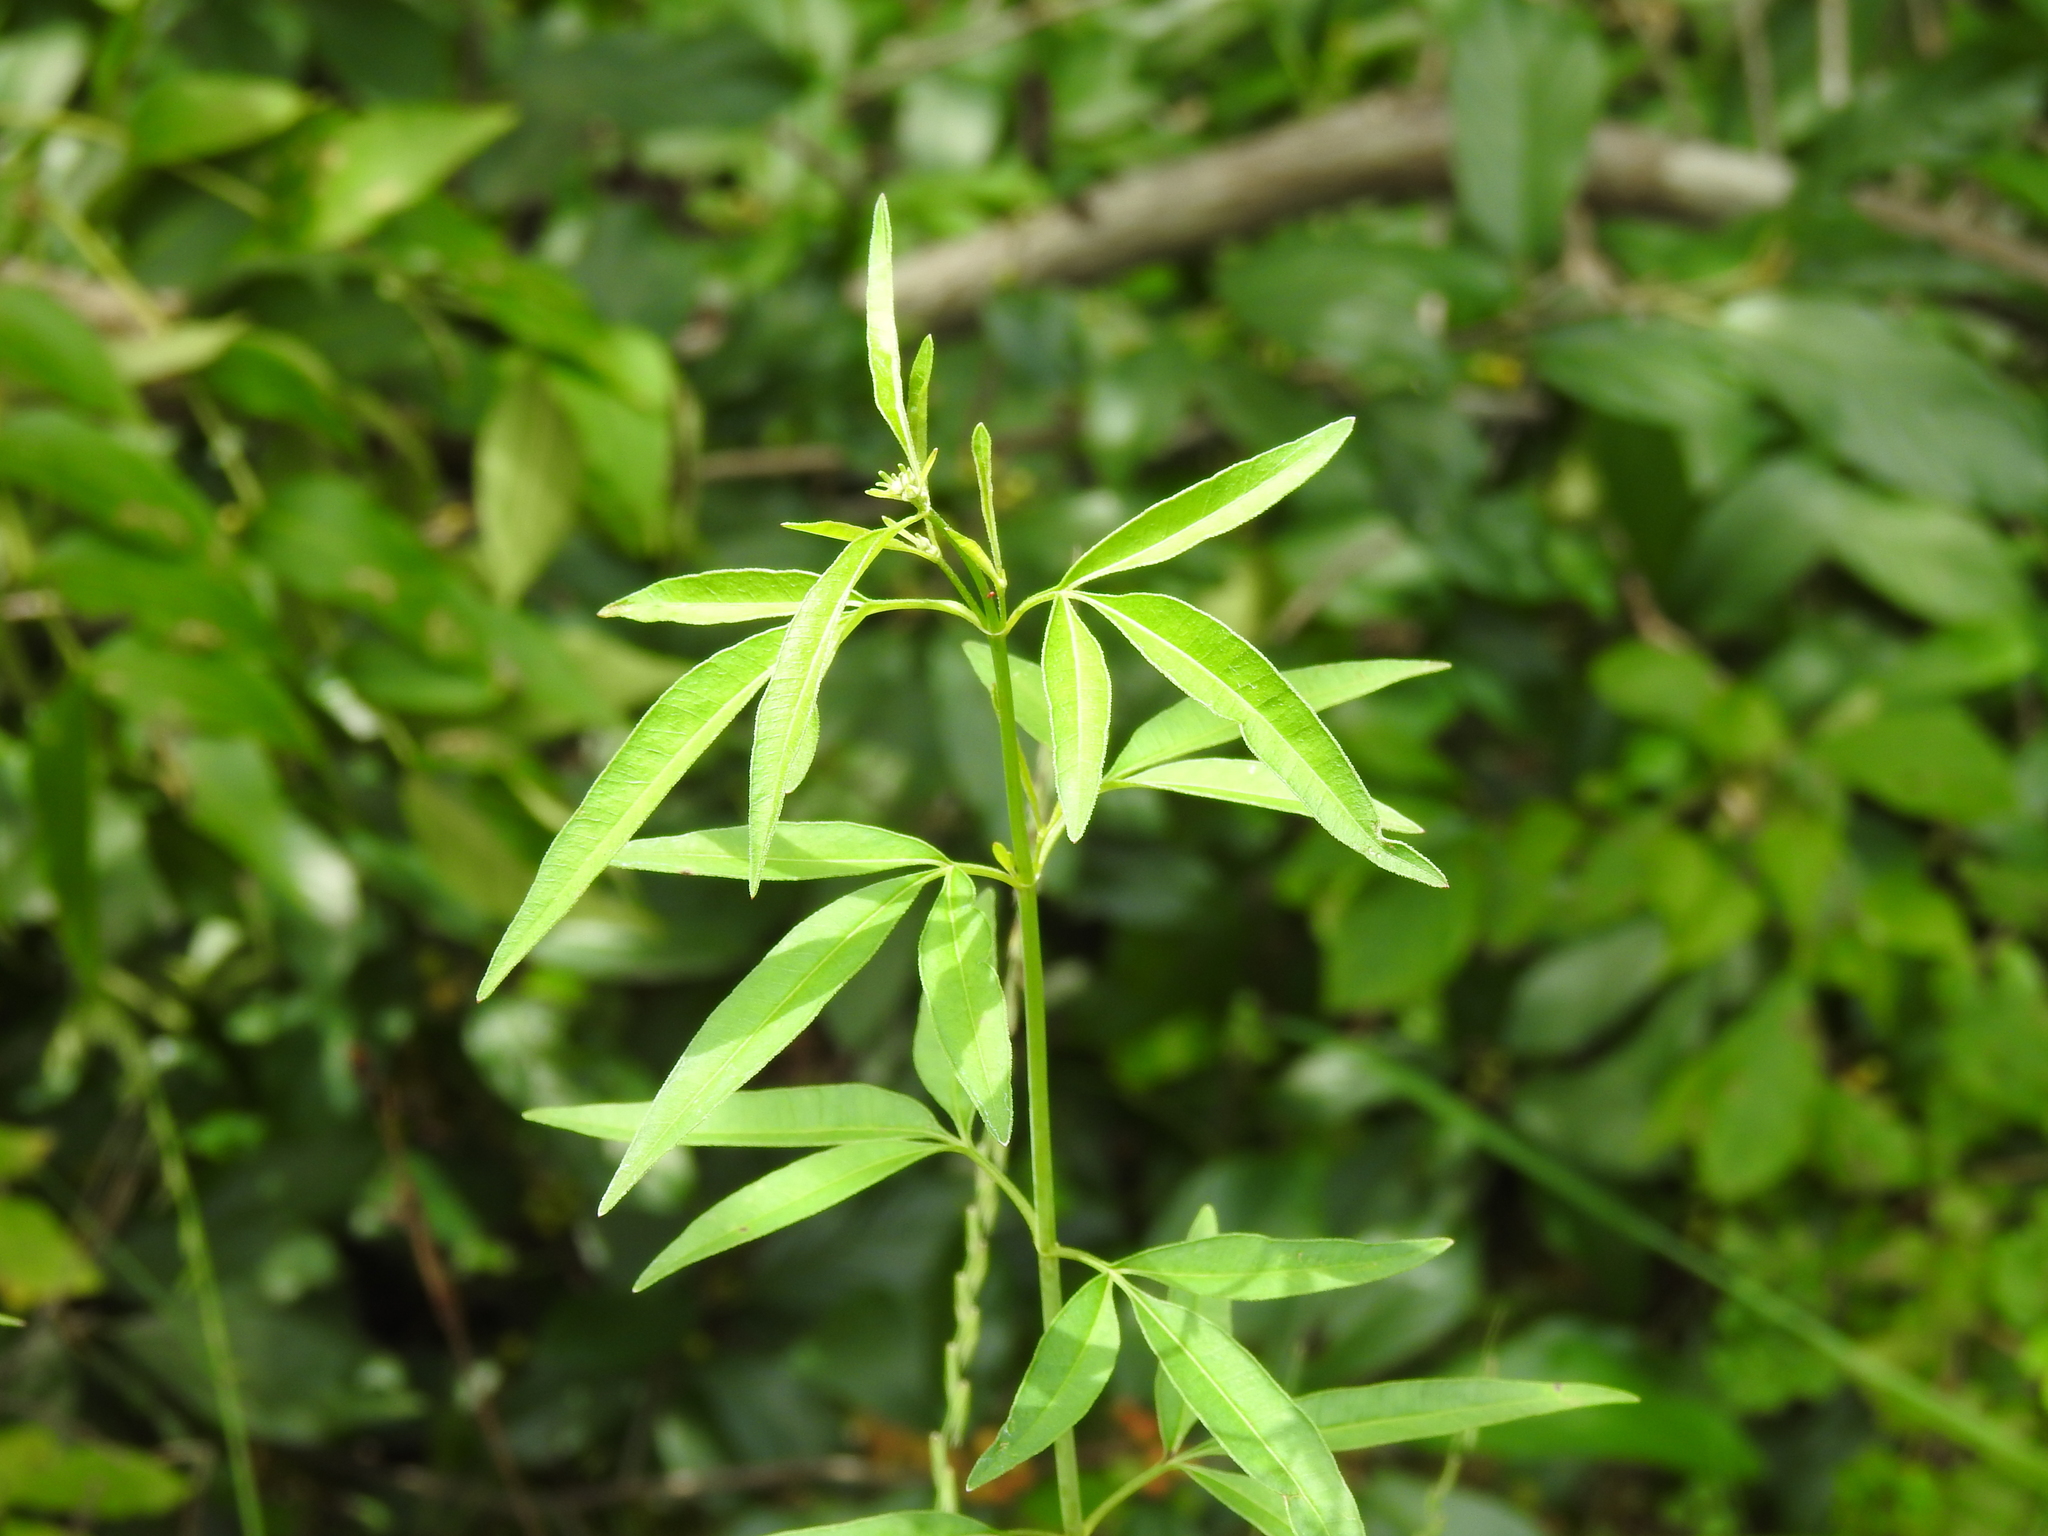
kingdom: Plantae
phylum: Tracheophyta
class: Magnoliopsida
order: Asterales
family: Asteraceae
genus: Coreopsis
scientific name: Coreopsis tripteris
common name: Tall coreopsis
